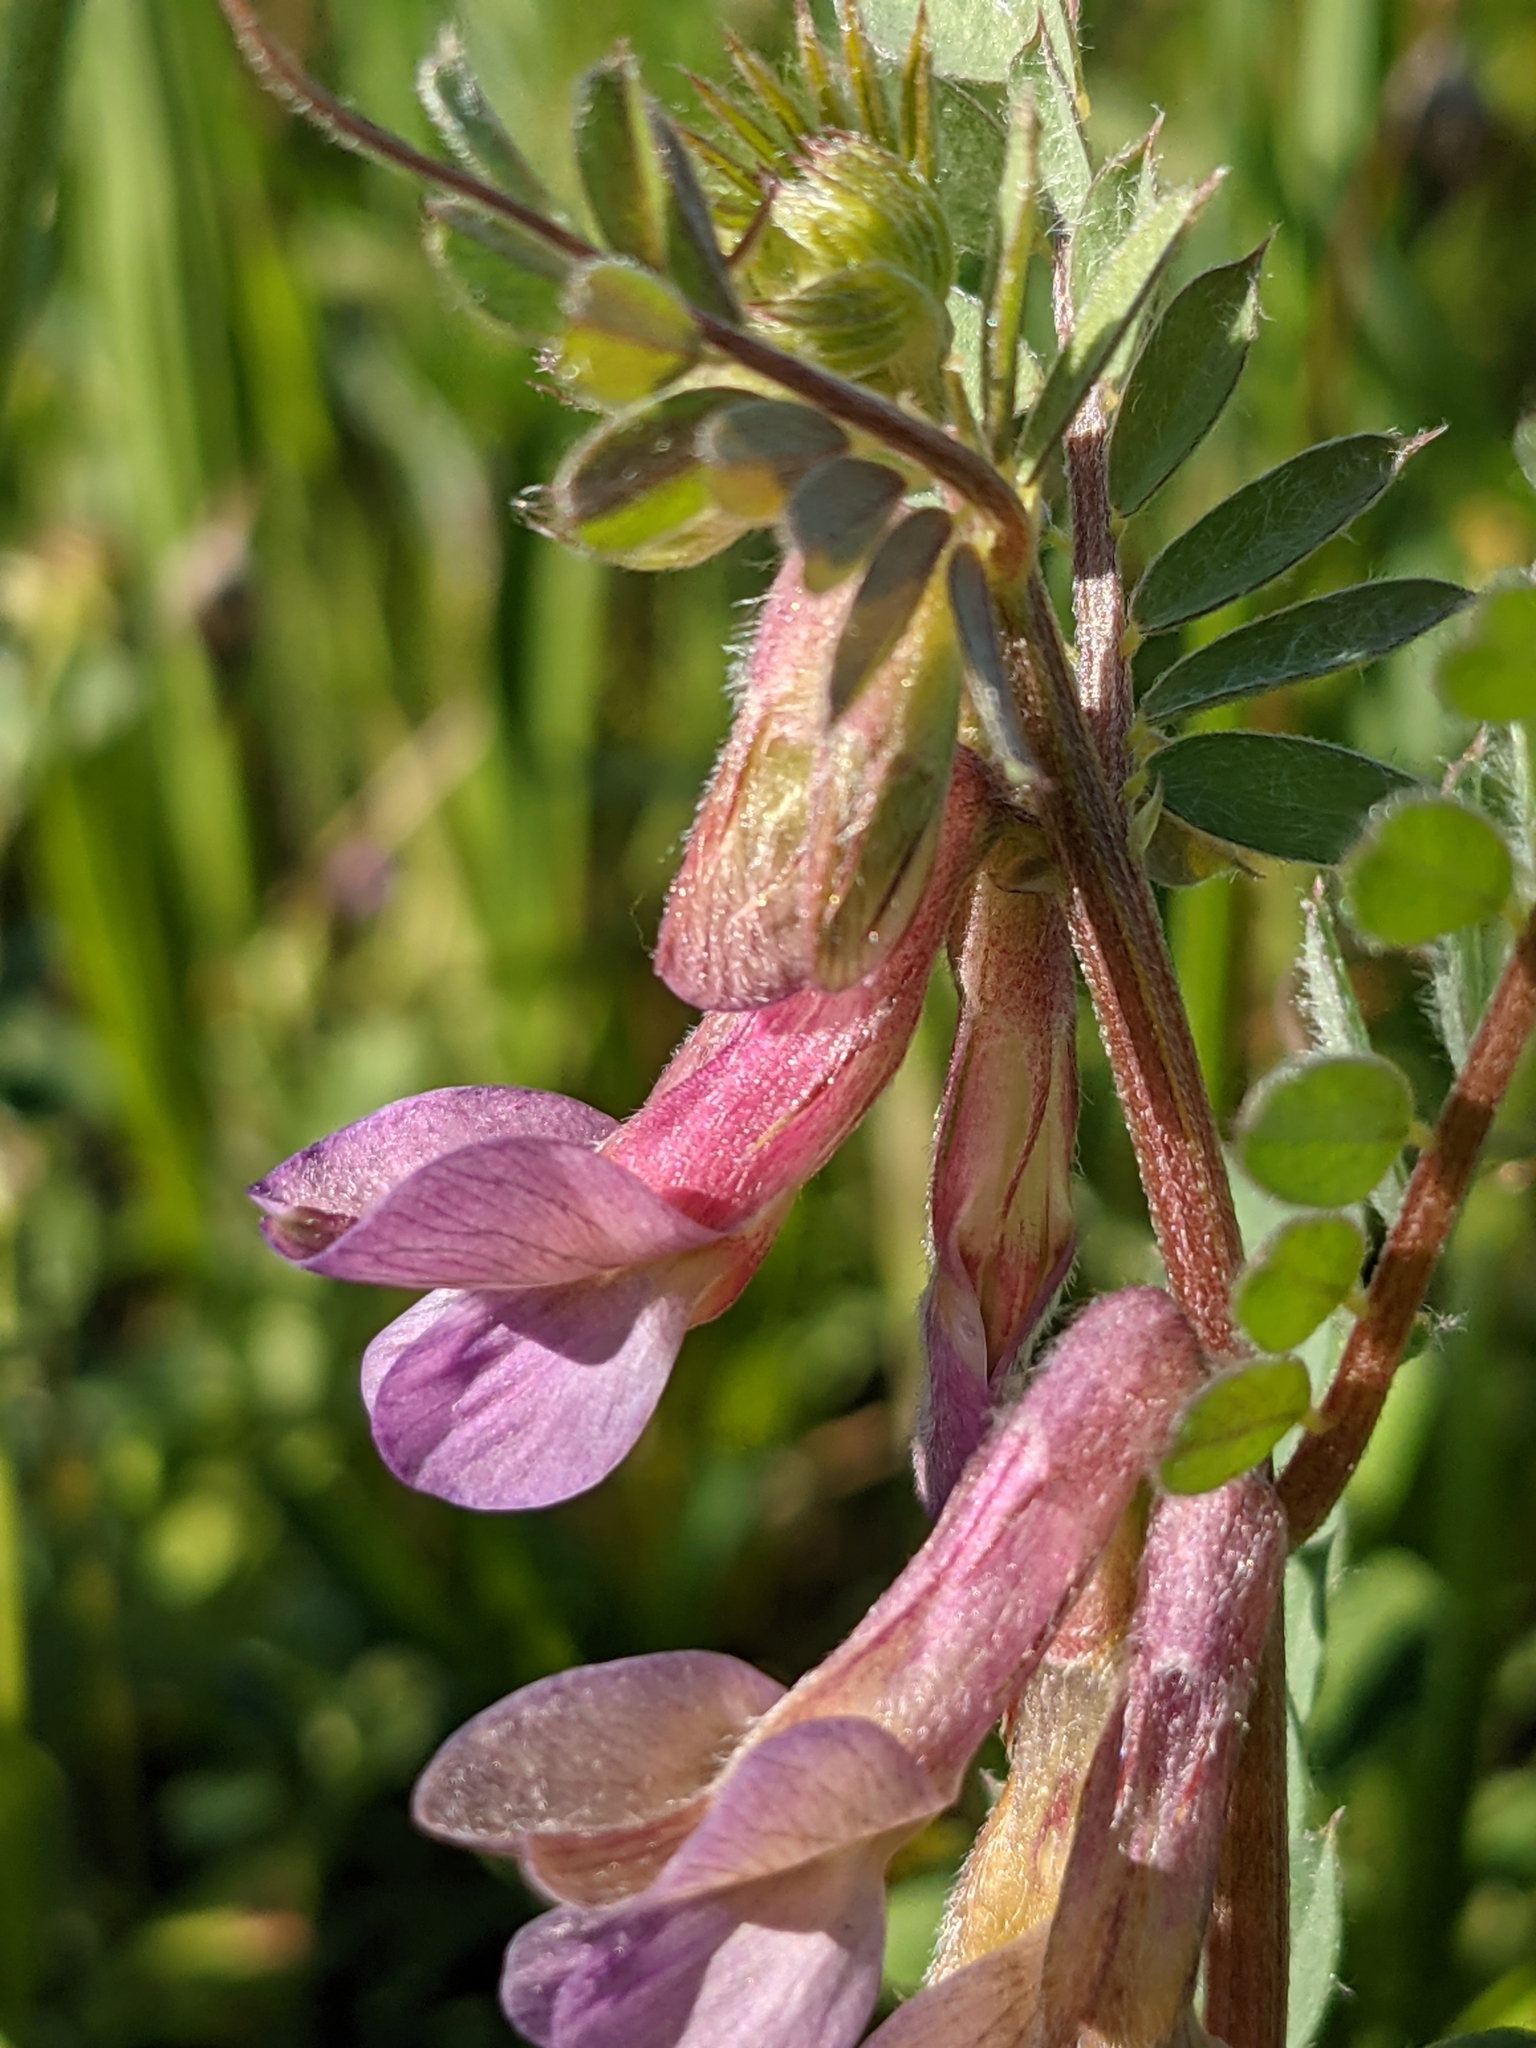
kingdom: Plantae
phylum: Tracheophyta
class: Magnoliopsida
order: Fabales
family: Fabaceae
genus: Vicia
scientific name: Vicia pannonica
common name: Hungarian vetch
